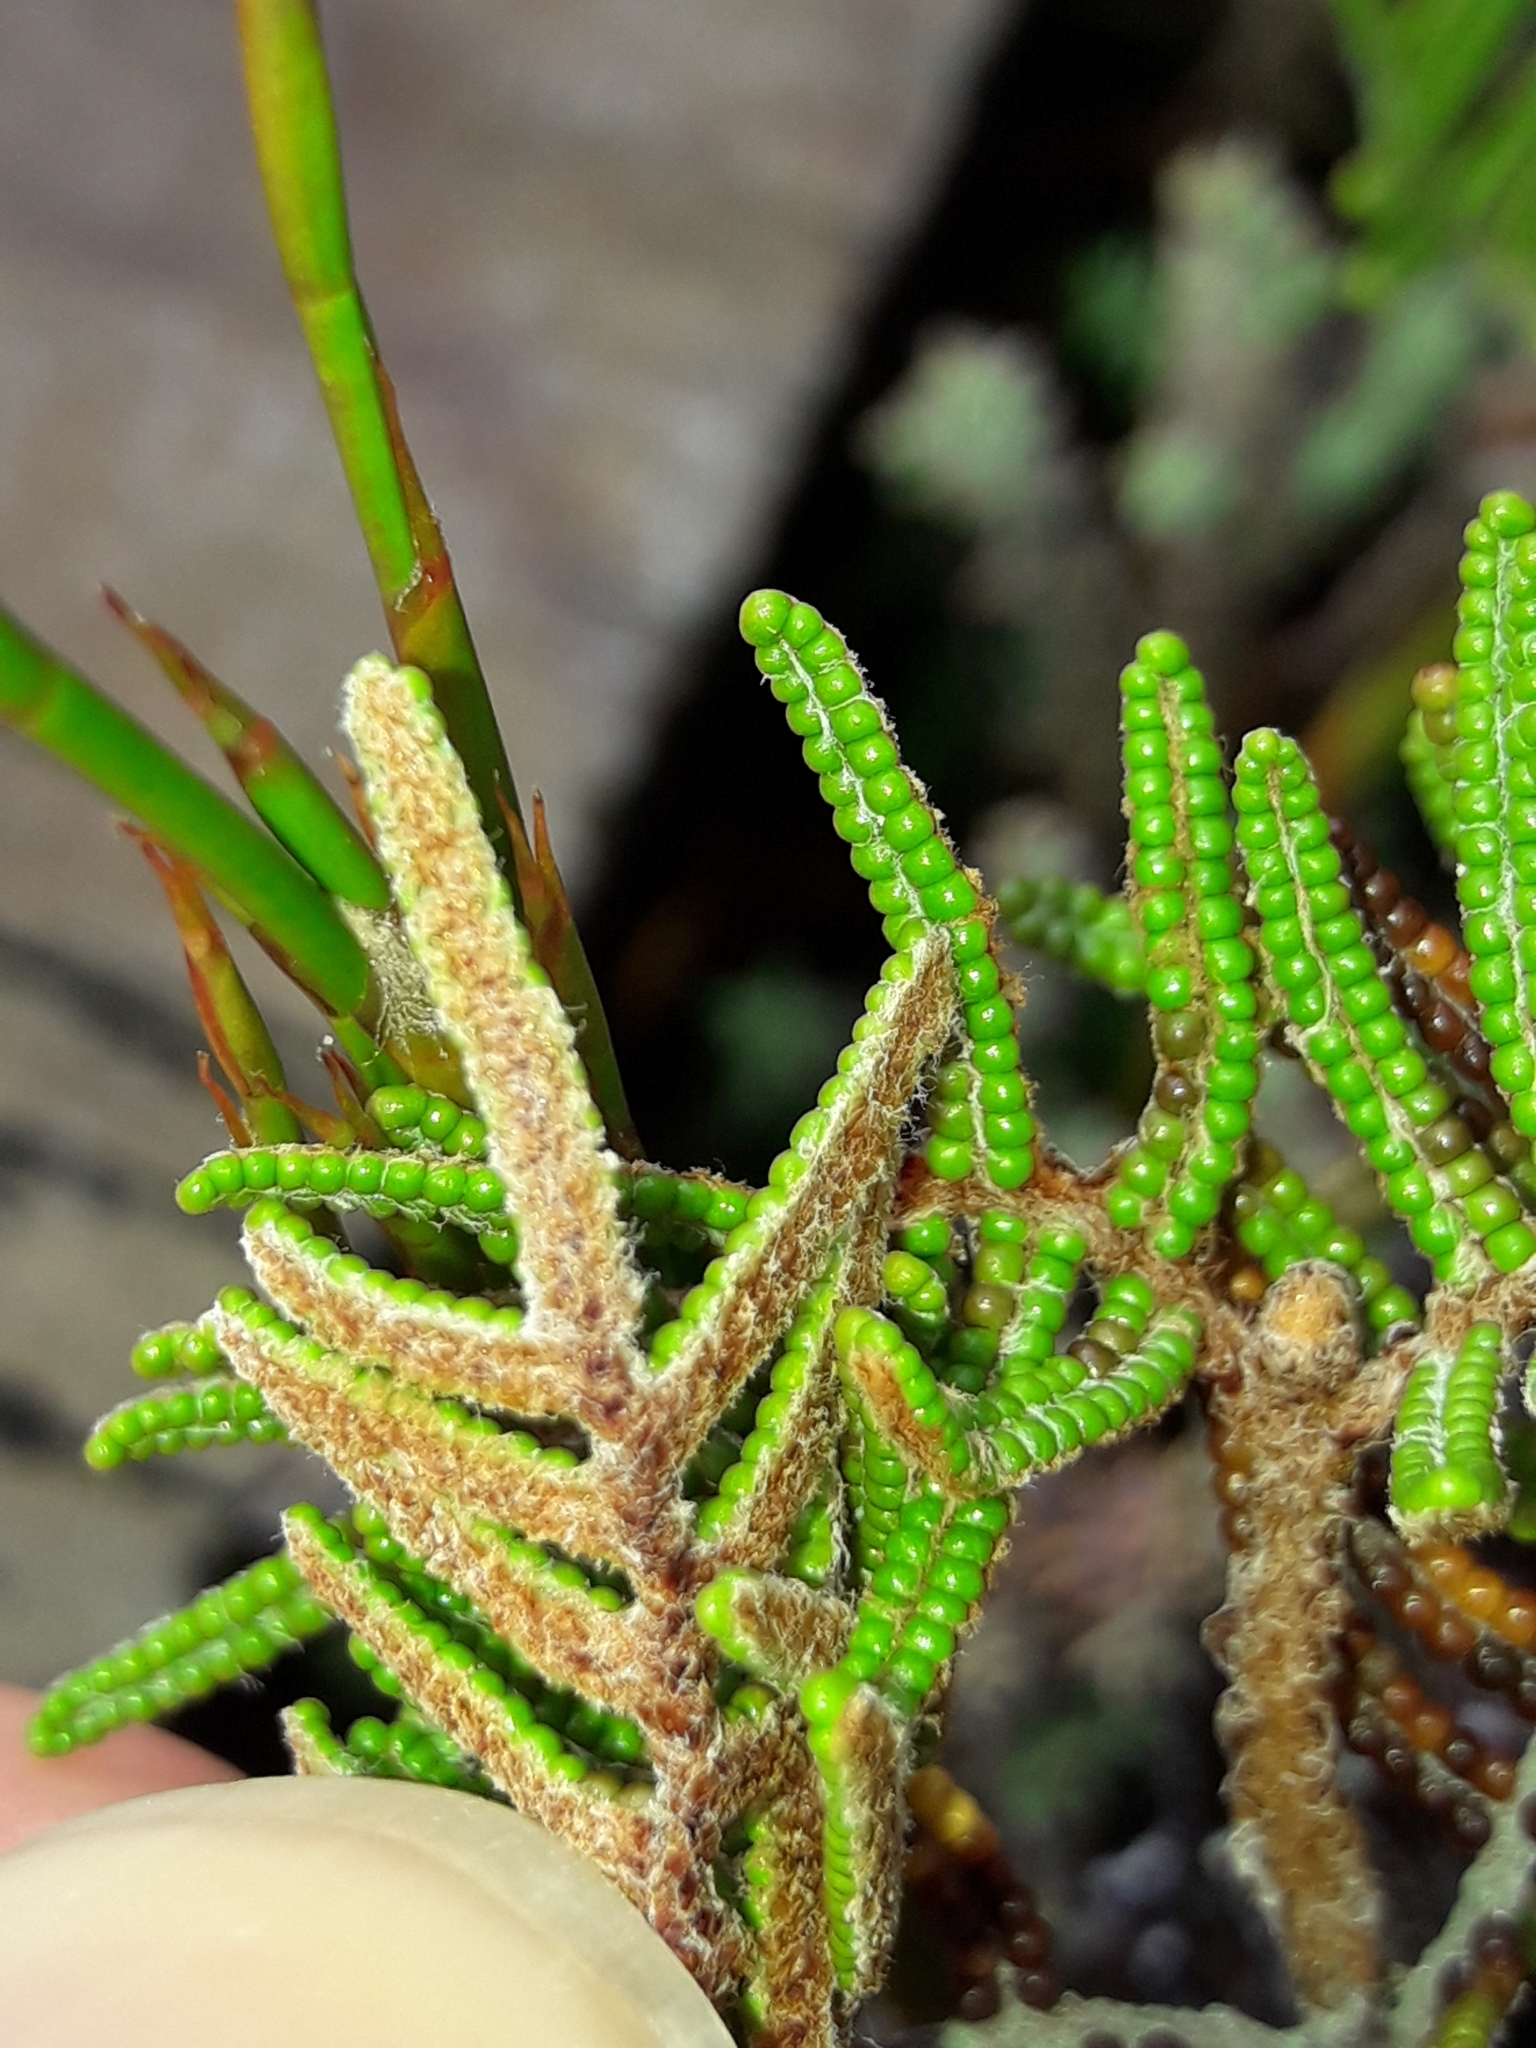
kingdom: Plantae
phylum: Tracheophyta
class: Polypodiopsida
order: Gleicheniales
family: Gleicheniaceae
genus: Gleichenia
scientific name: Gleichenia alpina
